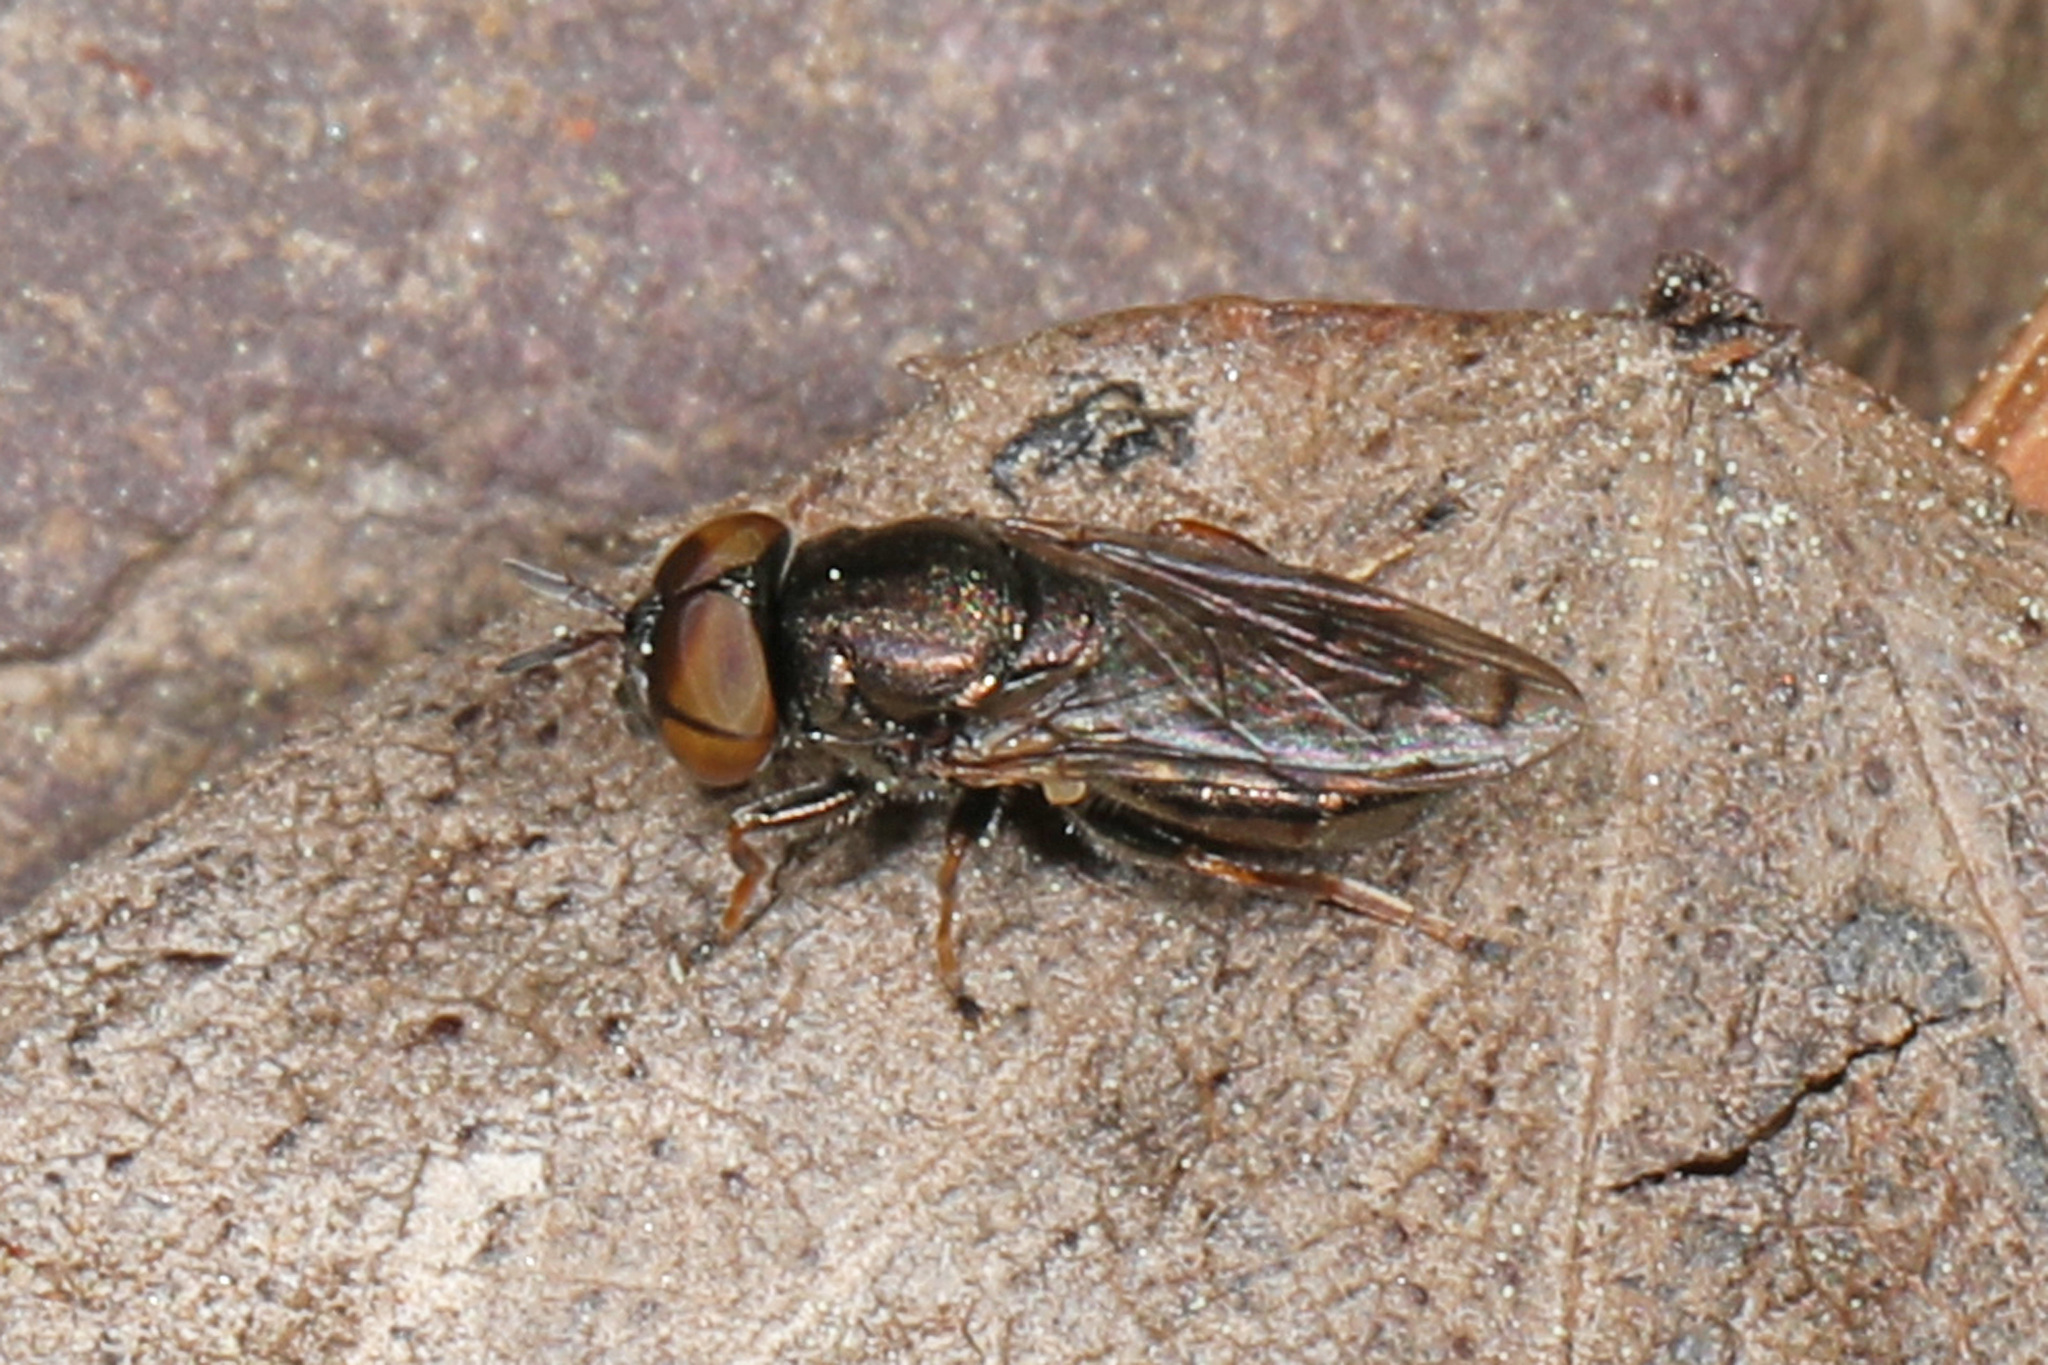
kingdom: Animalia
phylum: Arthropoda
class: Insecta
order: Diptera
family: Syrphidae
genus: Orthonevra
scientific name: Orthonevra pictipennis
